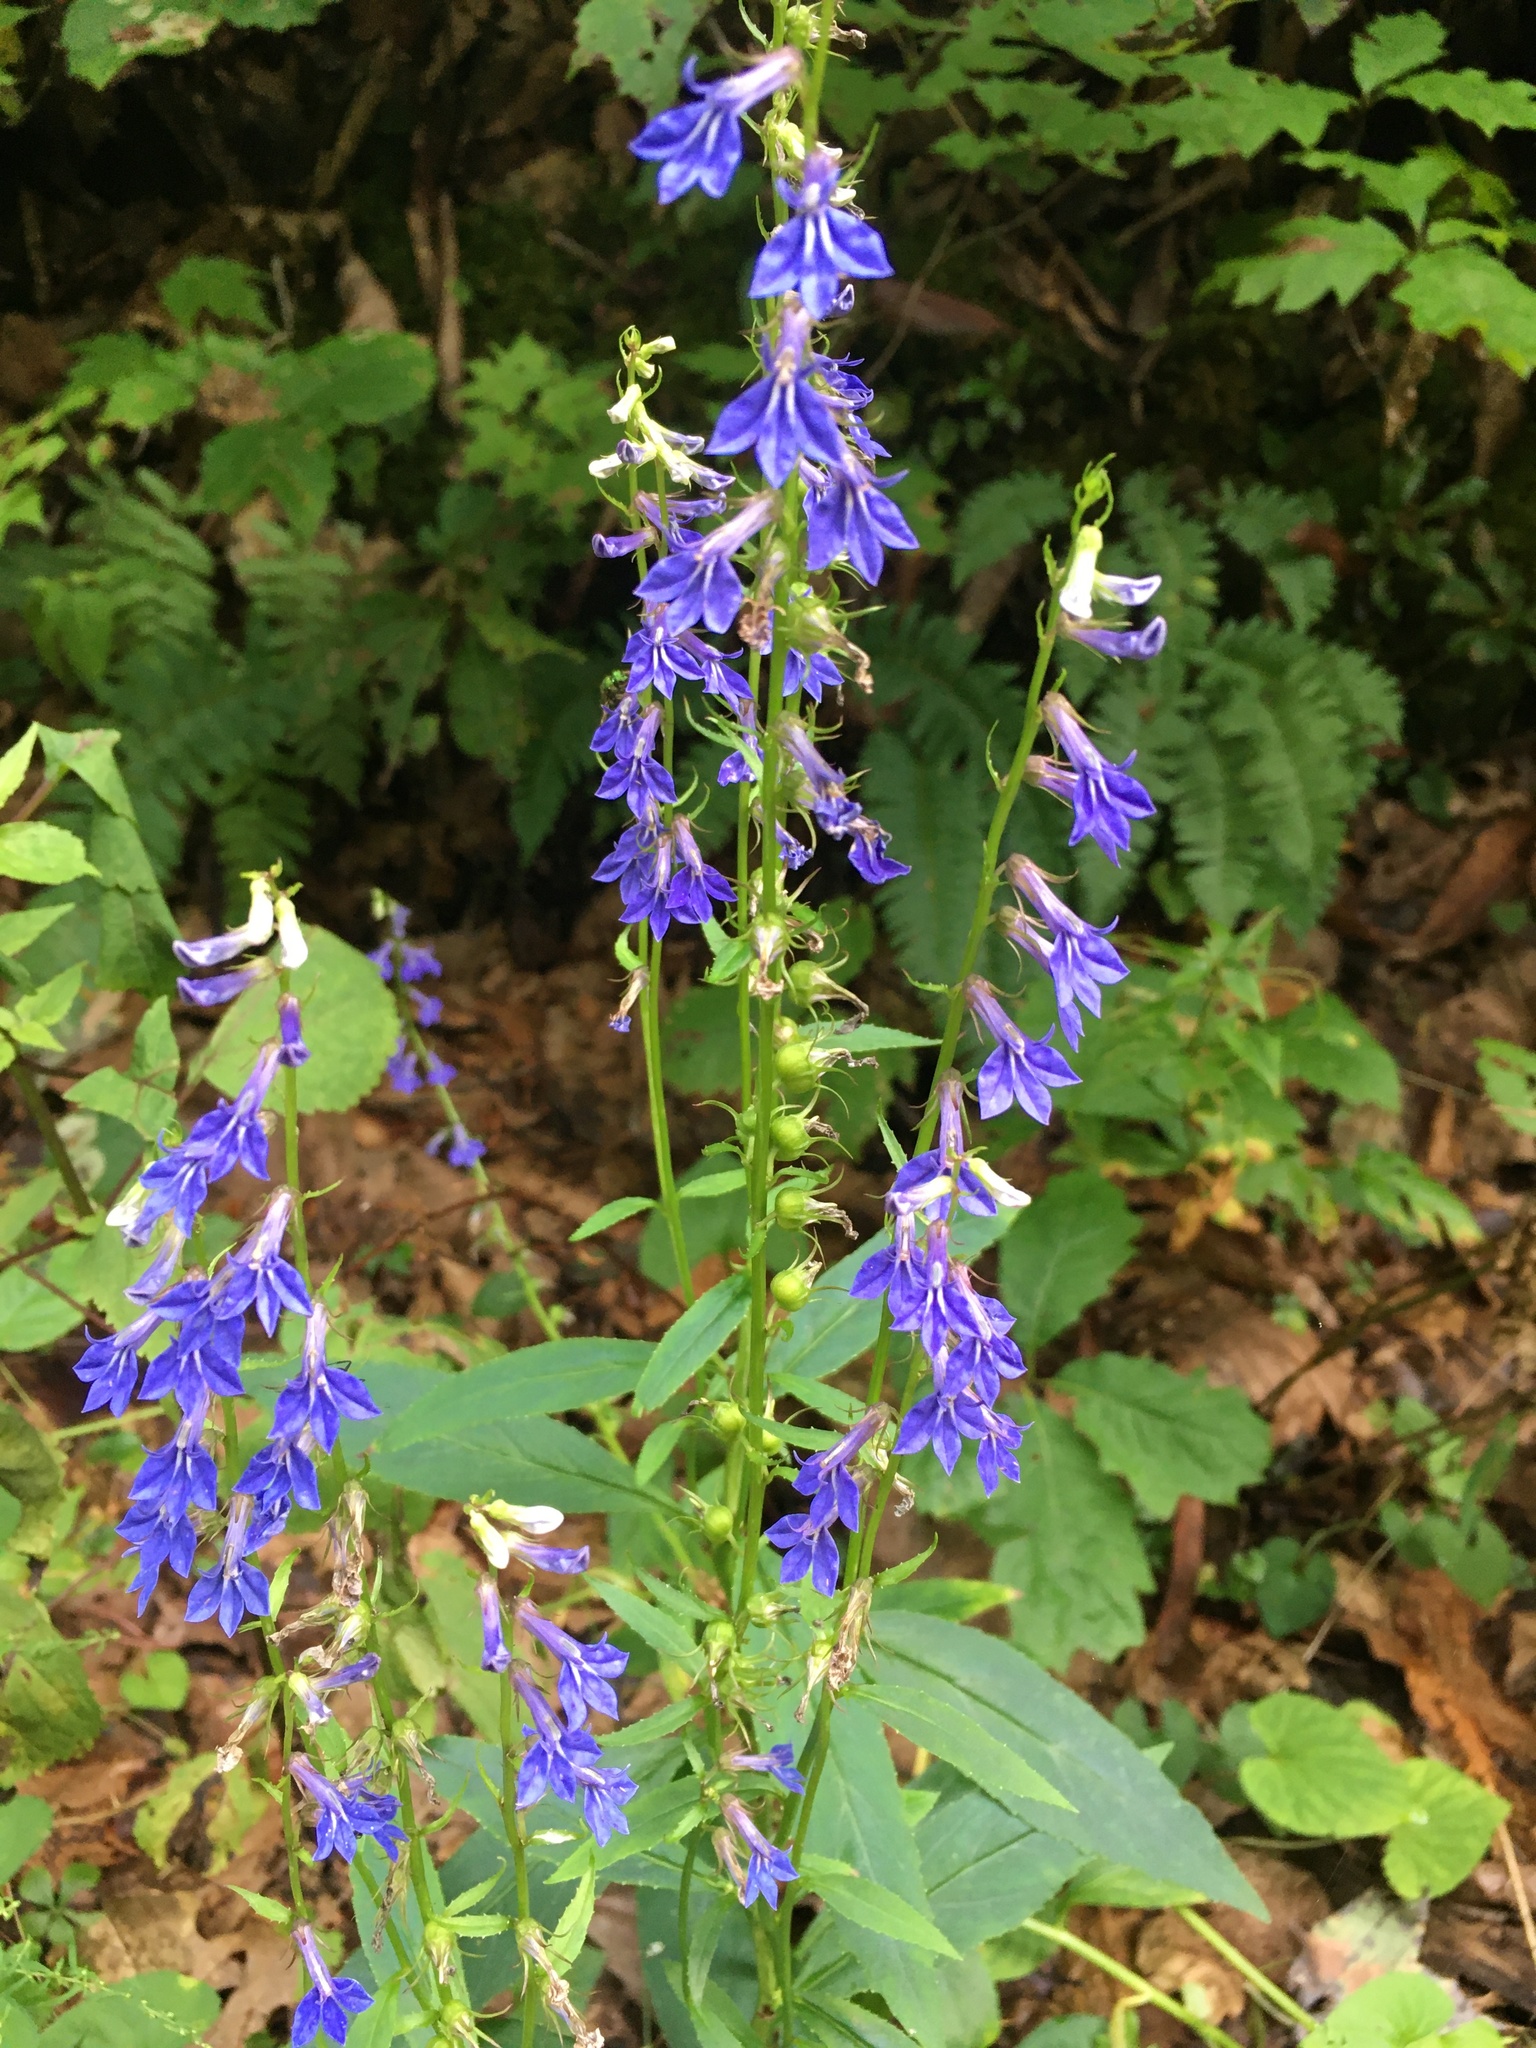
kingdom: Plantae
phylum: Tracheophyta
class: Magnoliopsida
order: Asterales
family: Campanulaceae
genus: Lobelia
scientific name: Lobelia amoena
